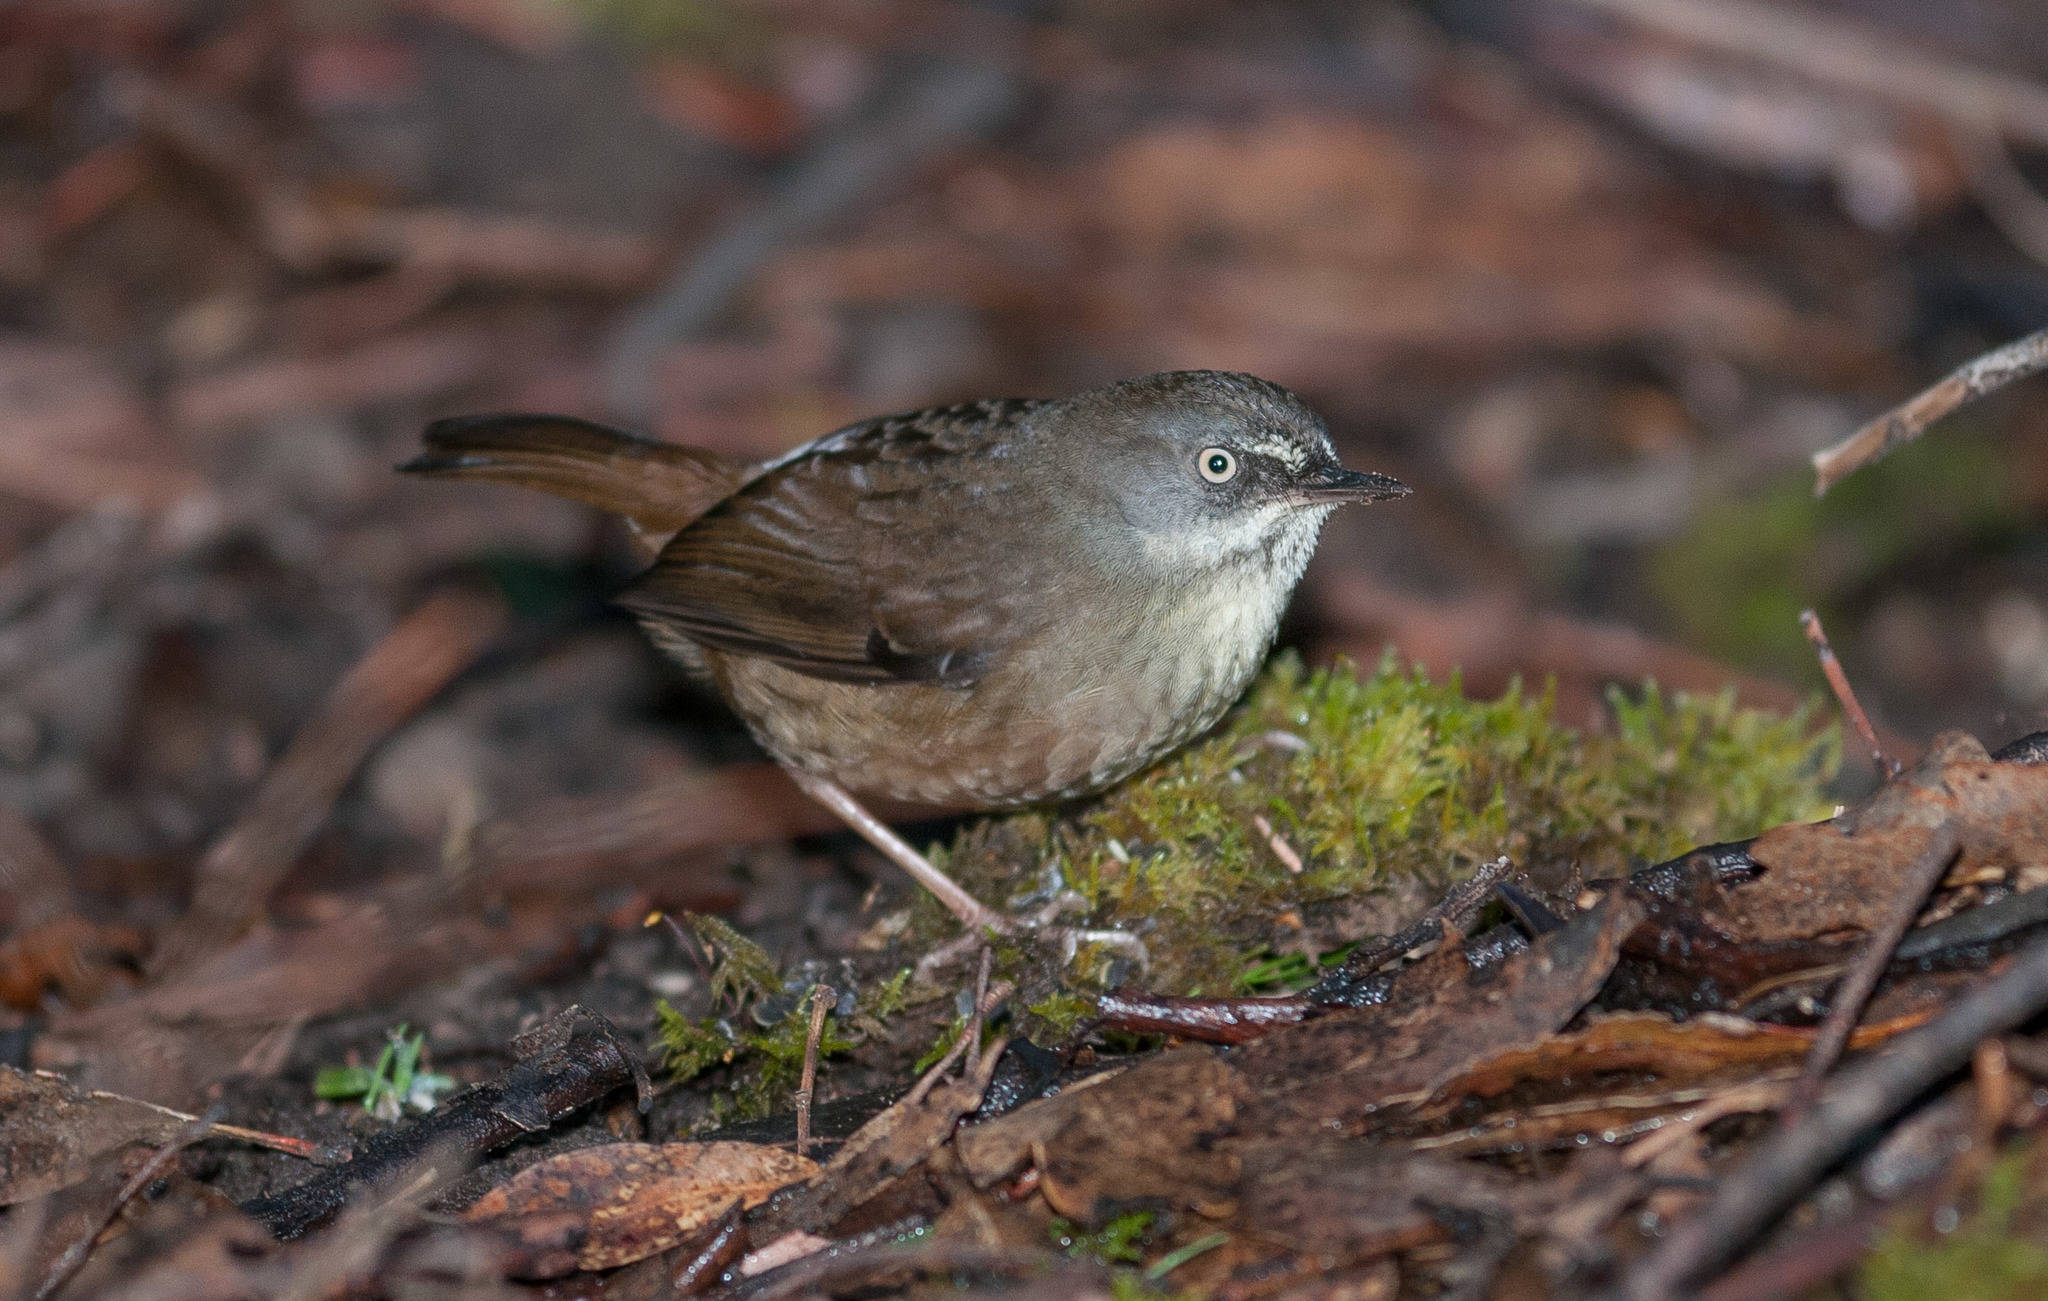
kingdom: Animalia
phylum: Chordata
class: Aves
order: Passeriformes
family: Acanthizidae
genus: Sericornis
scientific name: Sericornis humilis
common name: Tasmanian scrubwren
